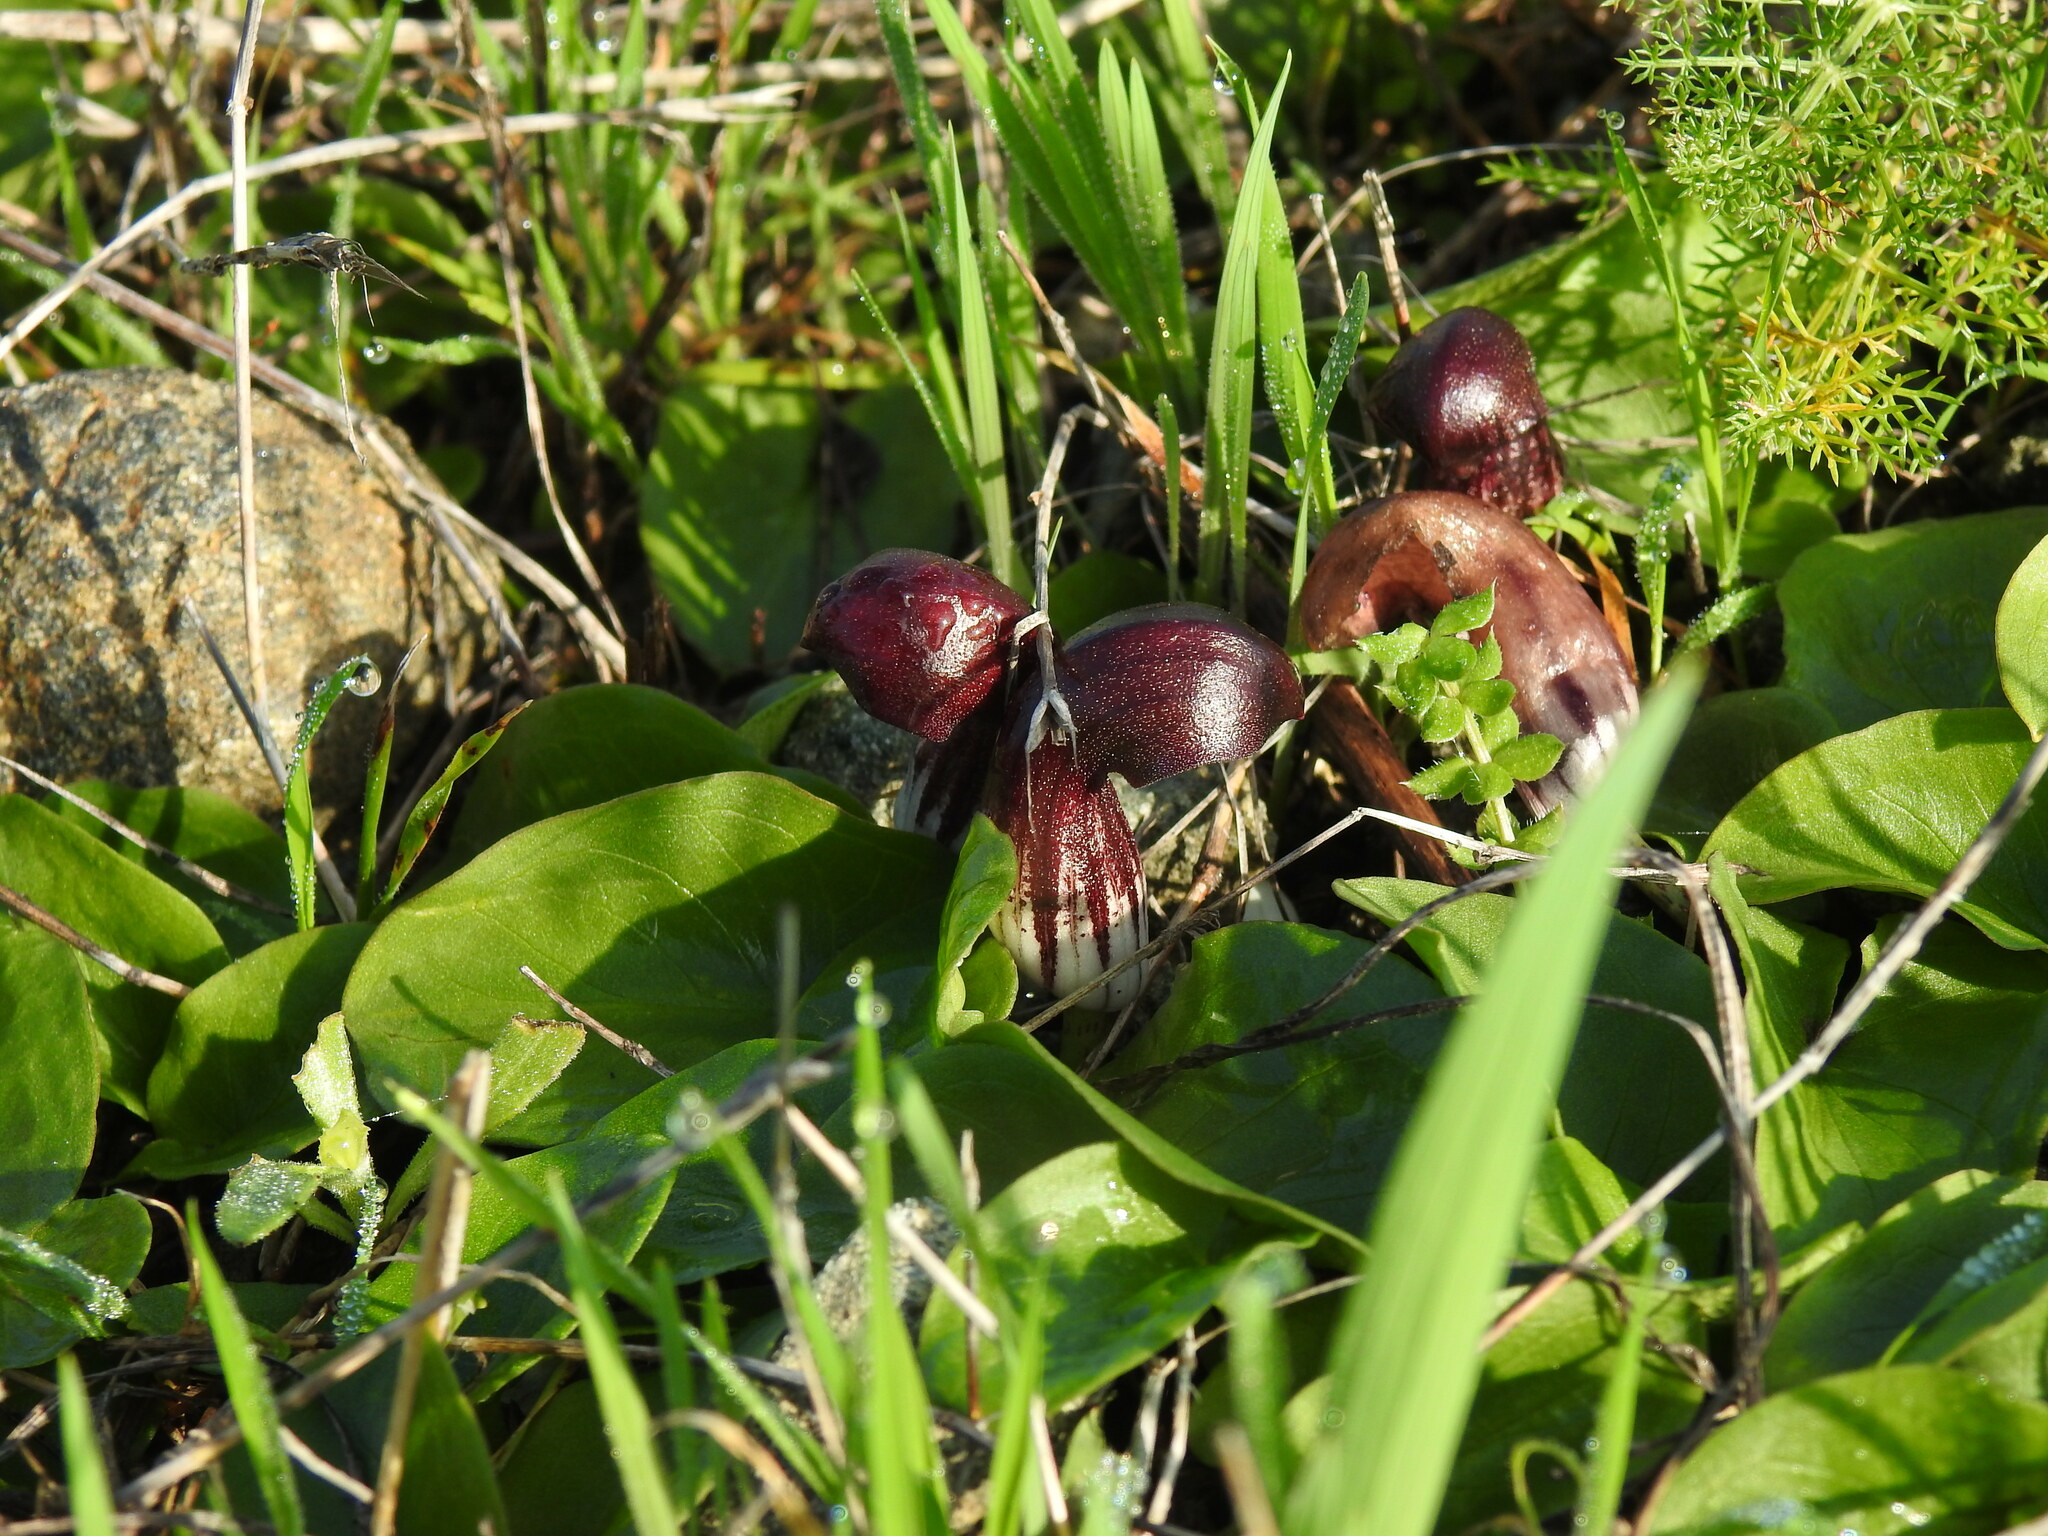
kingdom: Plantae
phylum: Tracheophyta
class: Liliopsida
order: Alismatales
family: Araceae
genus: Arisarum
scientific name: Arisarum simorrhinum
